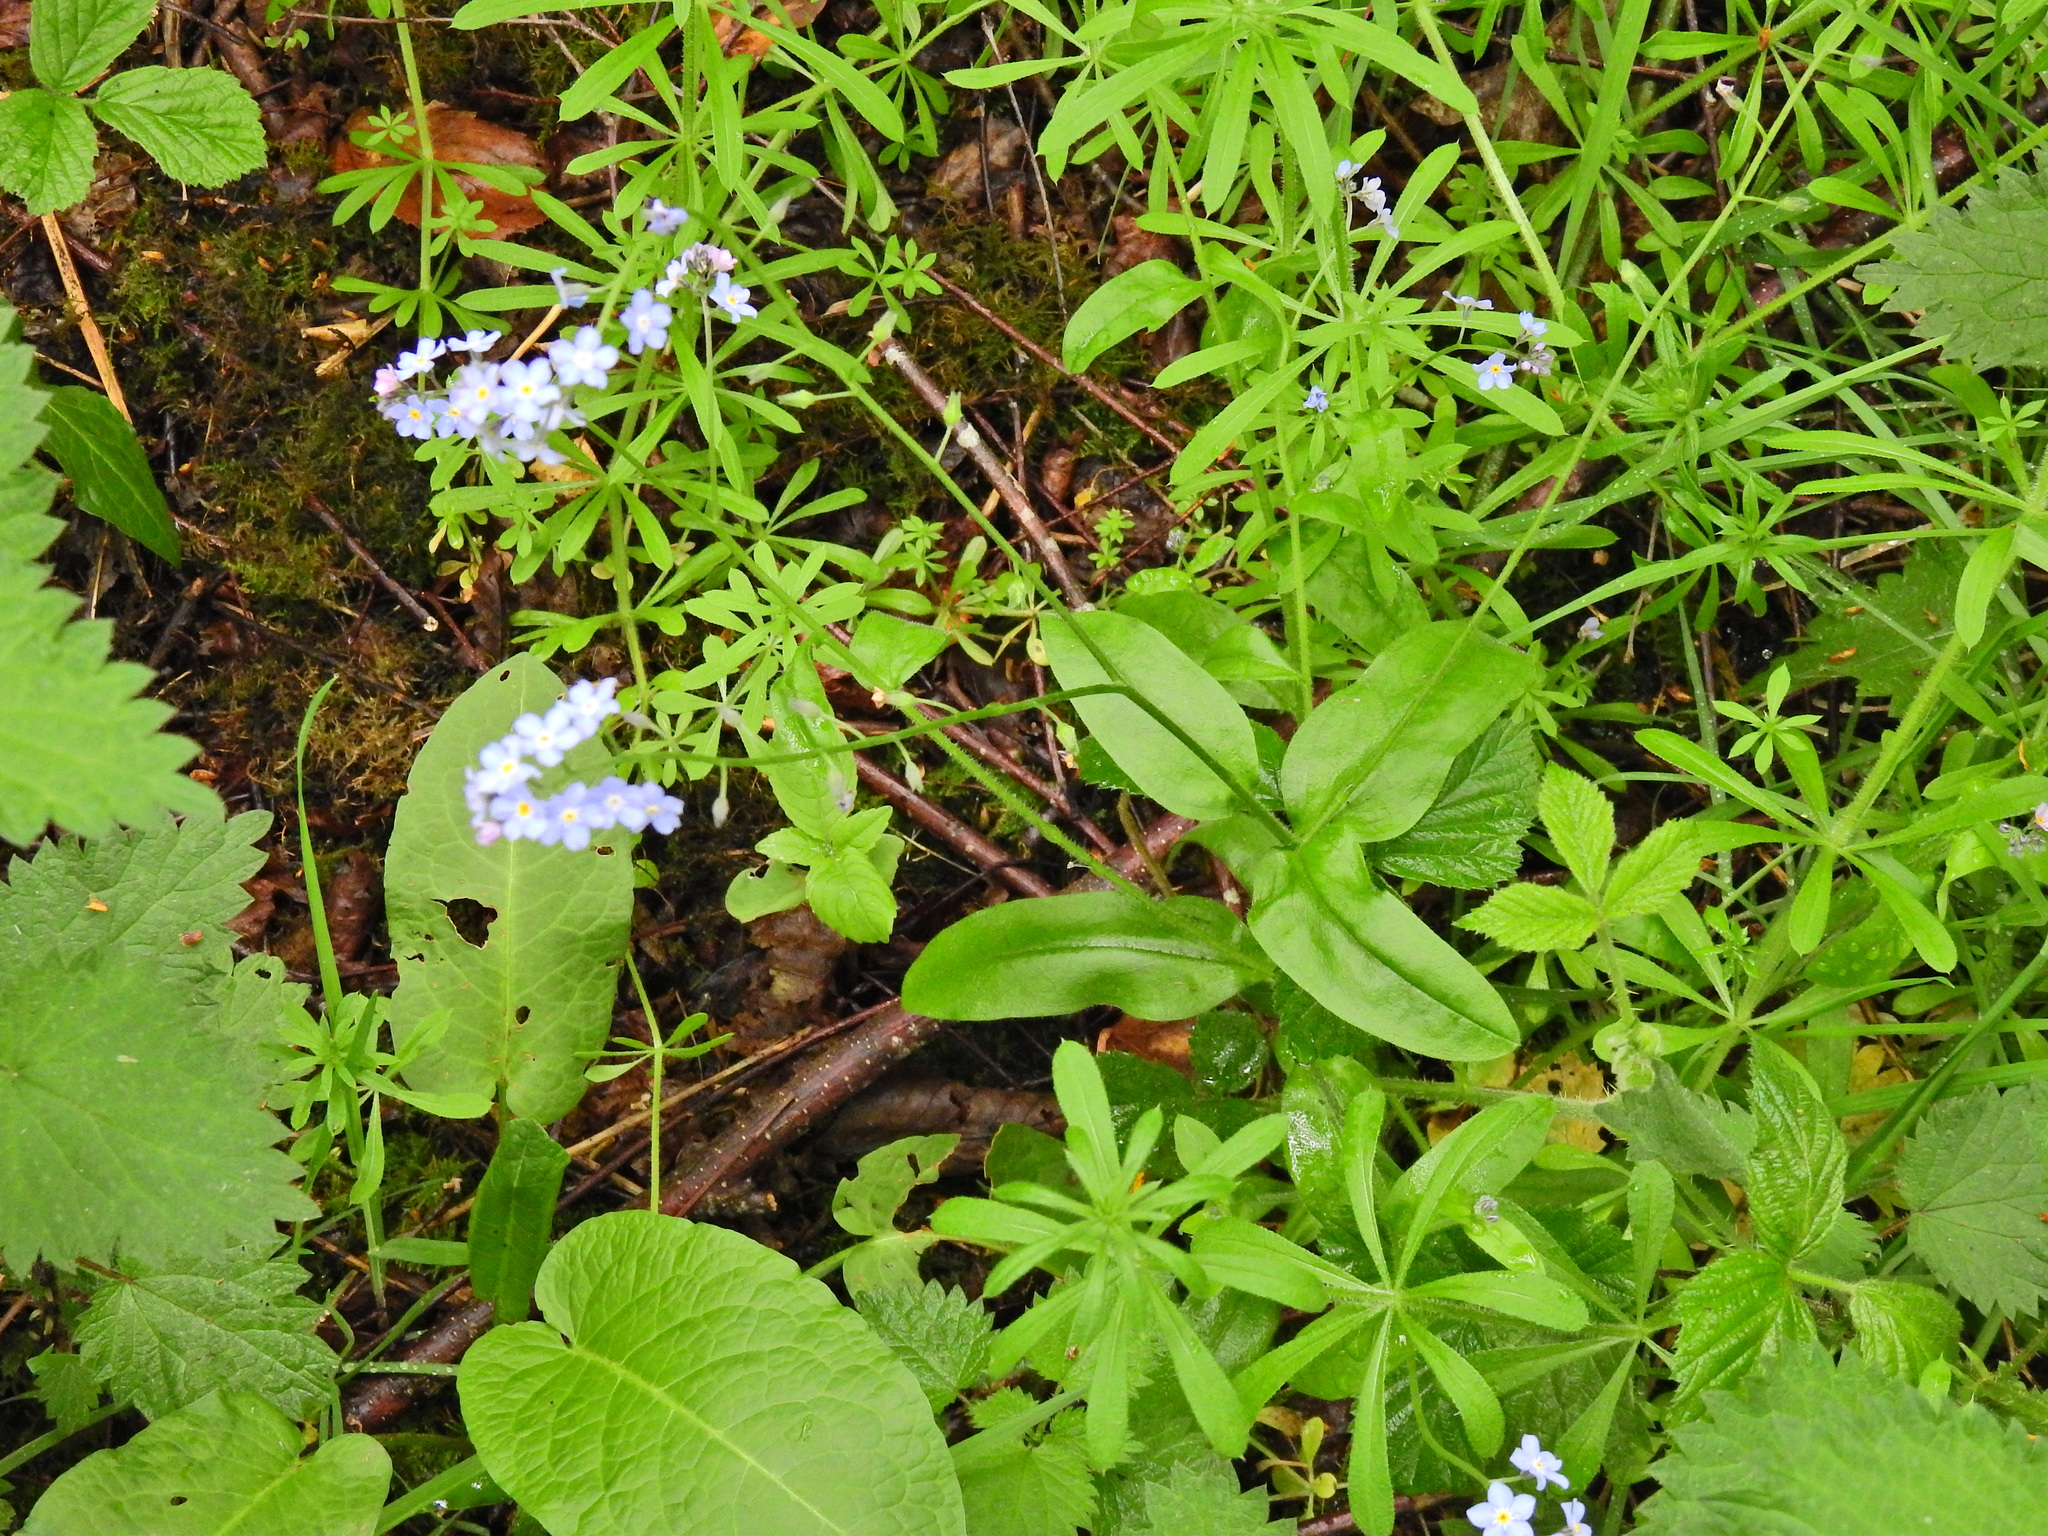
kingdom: Plantae
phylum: Tracheophyta
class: Magnoliopsida
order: Boraginales
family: Boraginaceae
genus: Myosotis
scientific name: Myosotis sylvatica
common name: Wood forget-me-not
